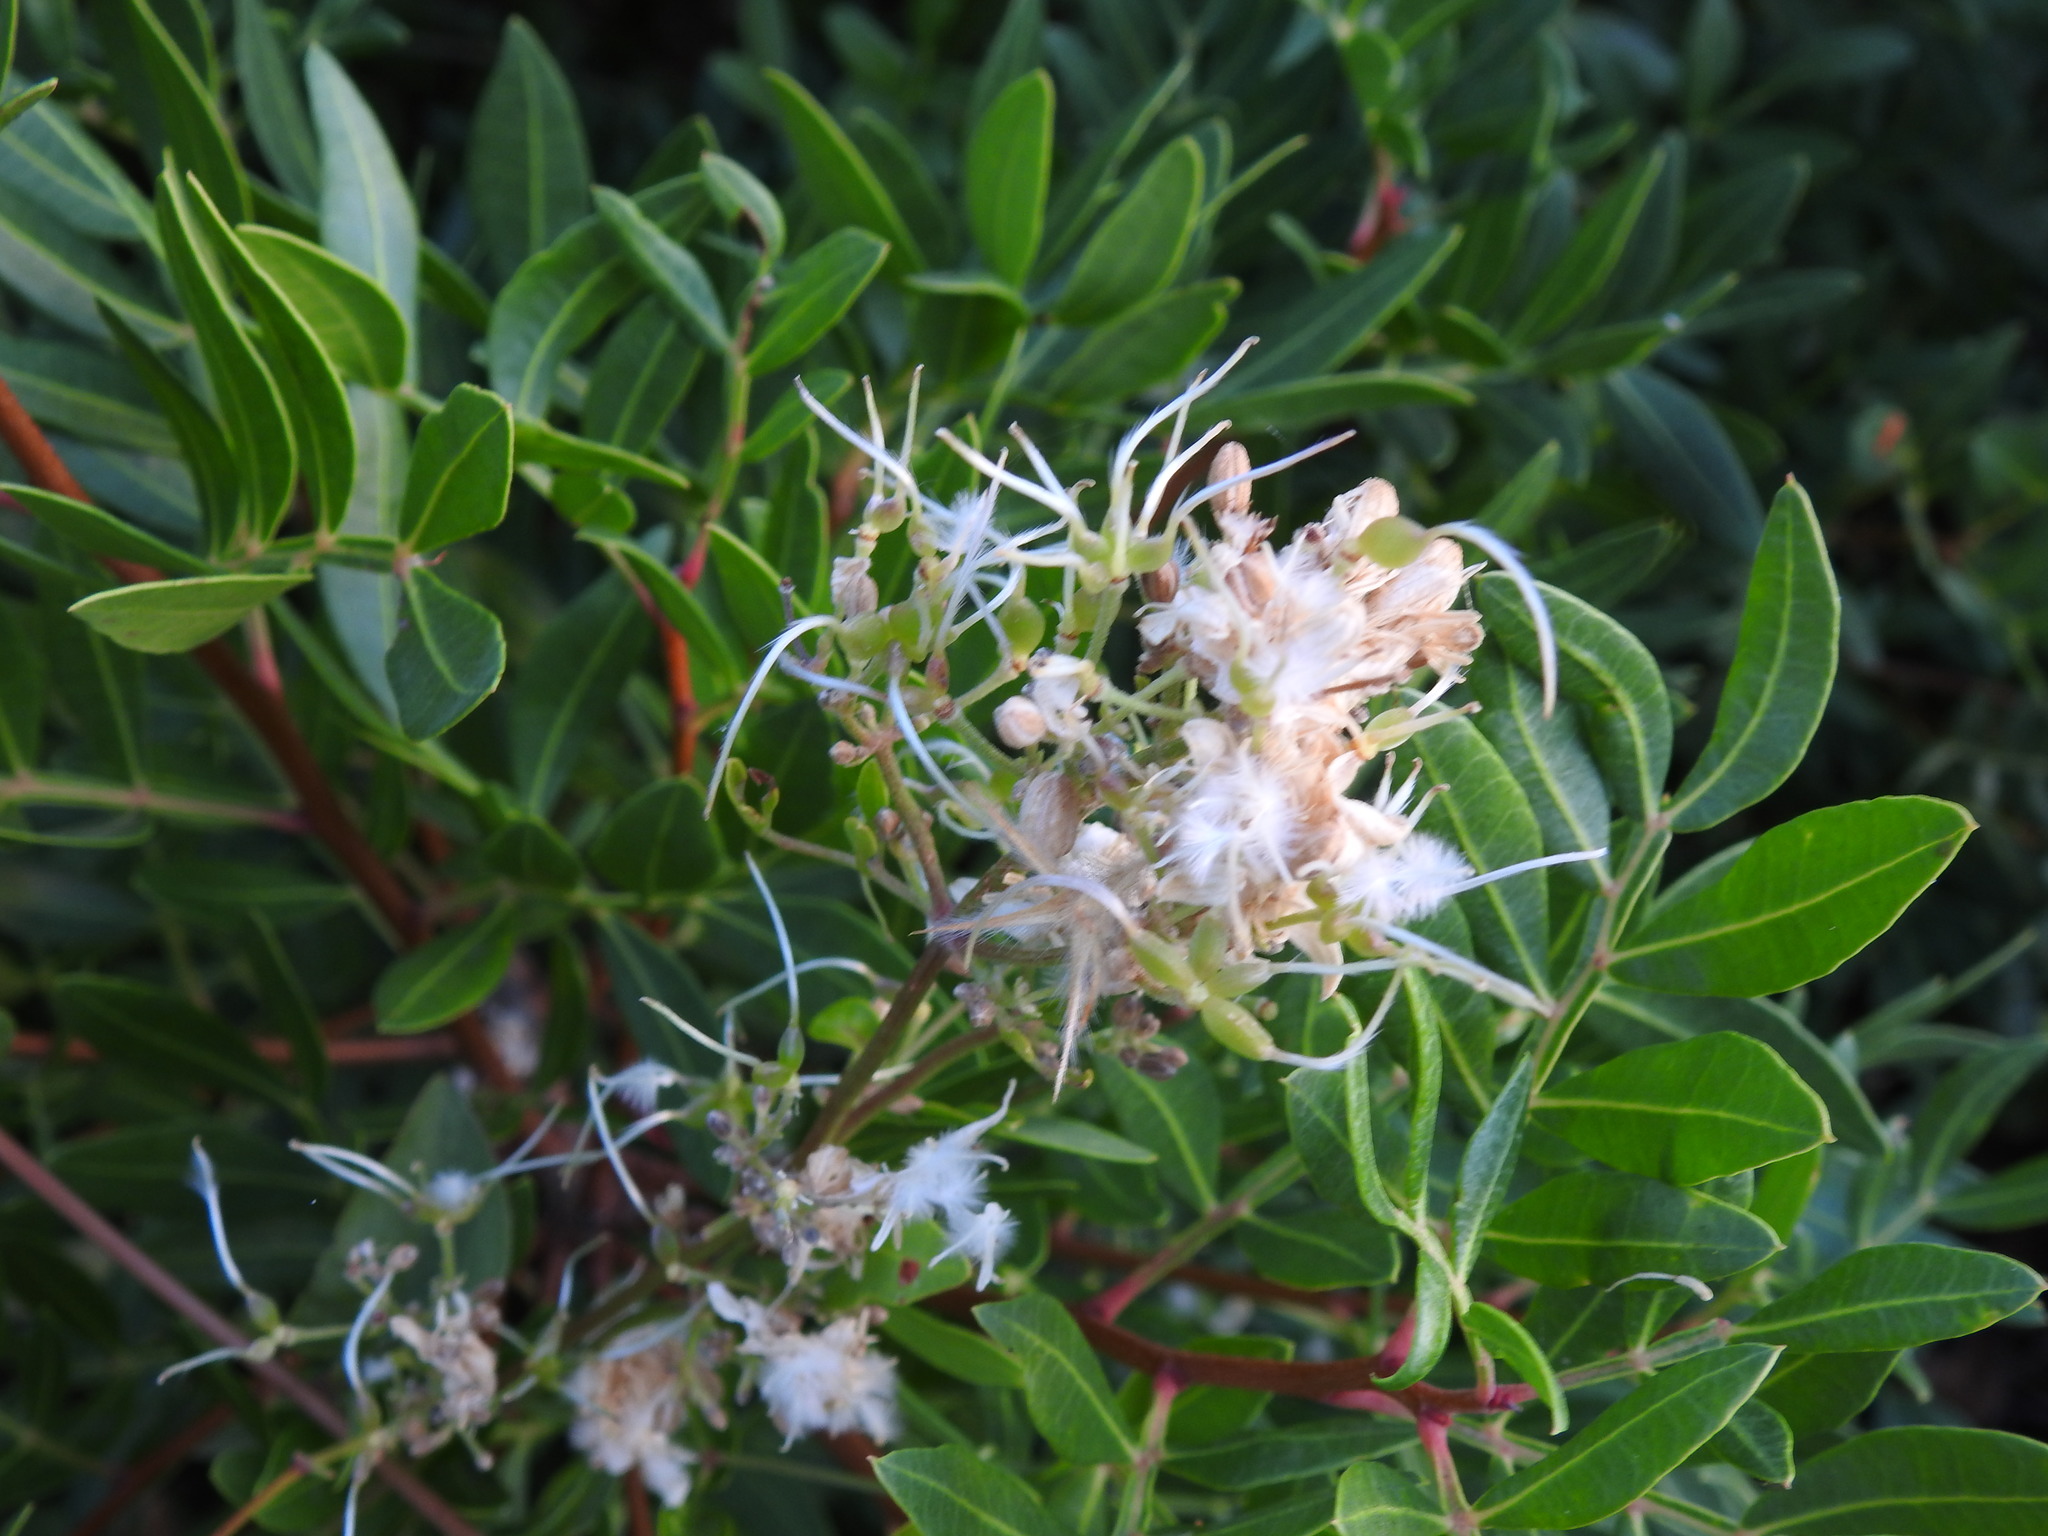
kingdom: Plantae
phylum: Tracheophyta
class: Magnoliopsida
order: Ranunculales
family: Ranunculaceae
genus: Clematis
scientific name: Clematis flammula
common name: Virgin's-bower
